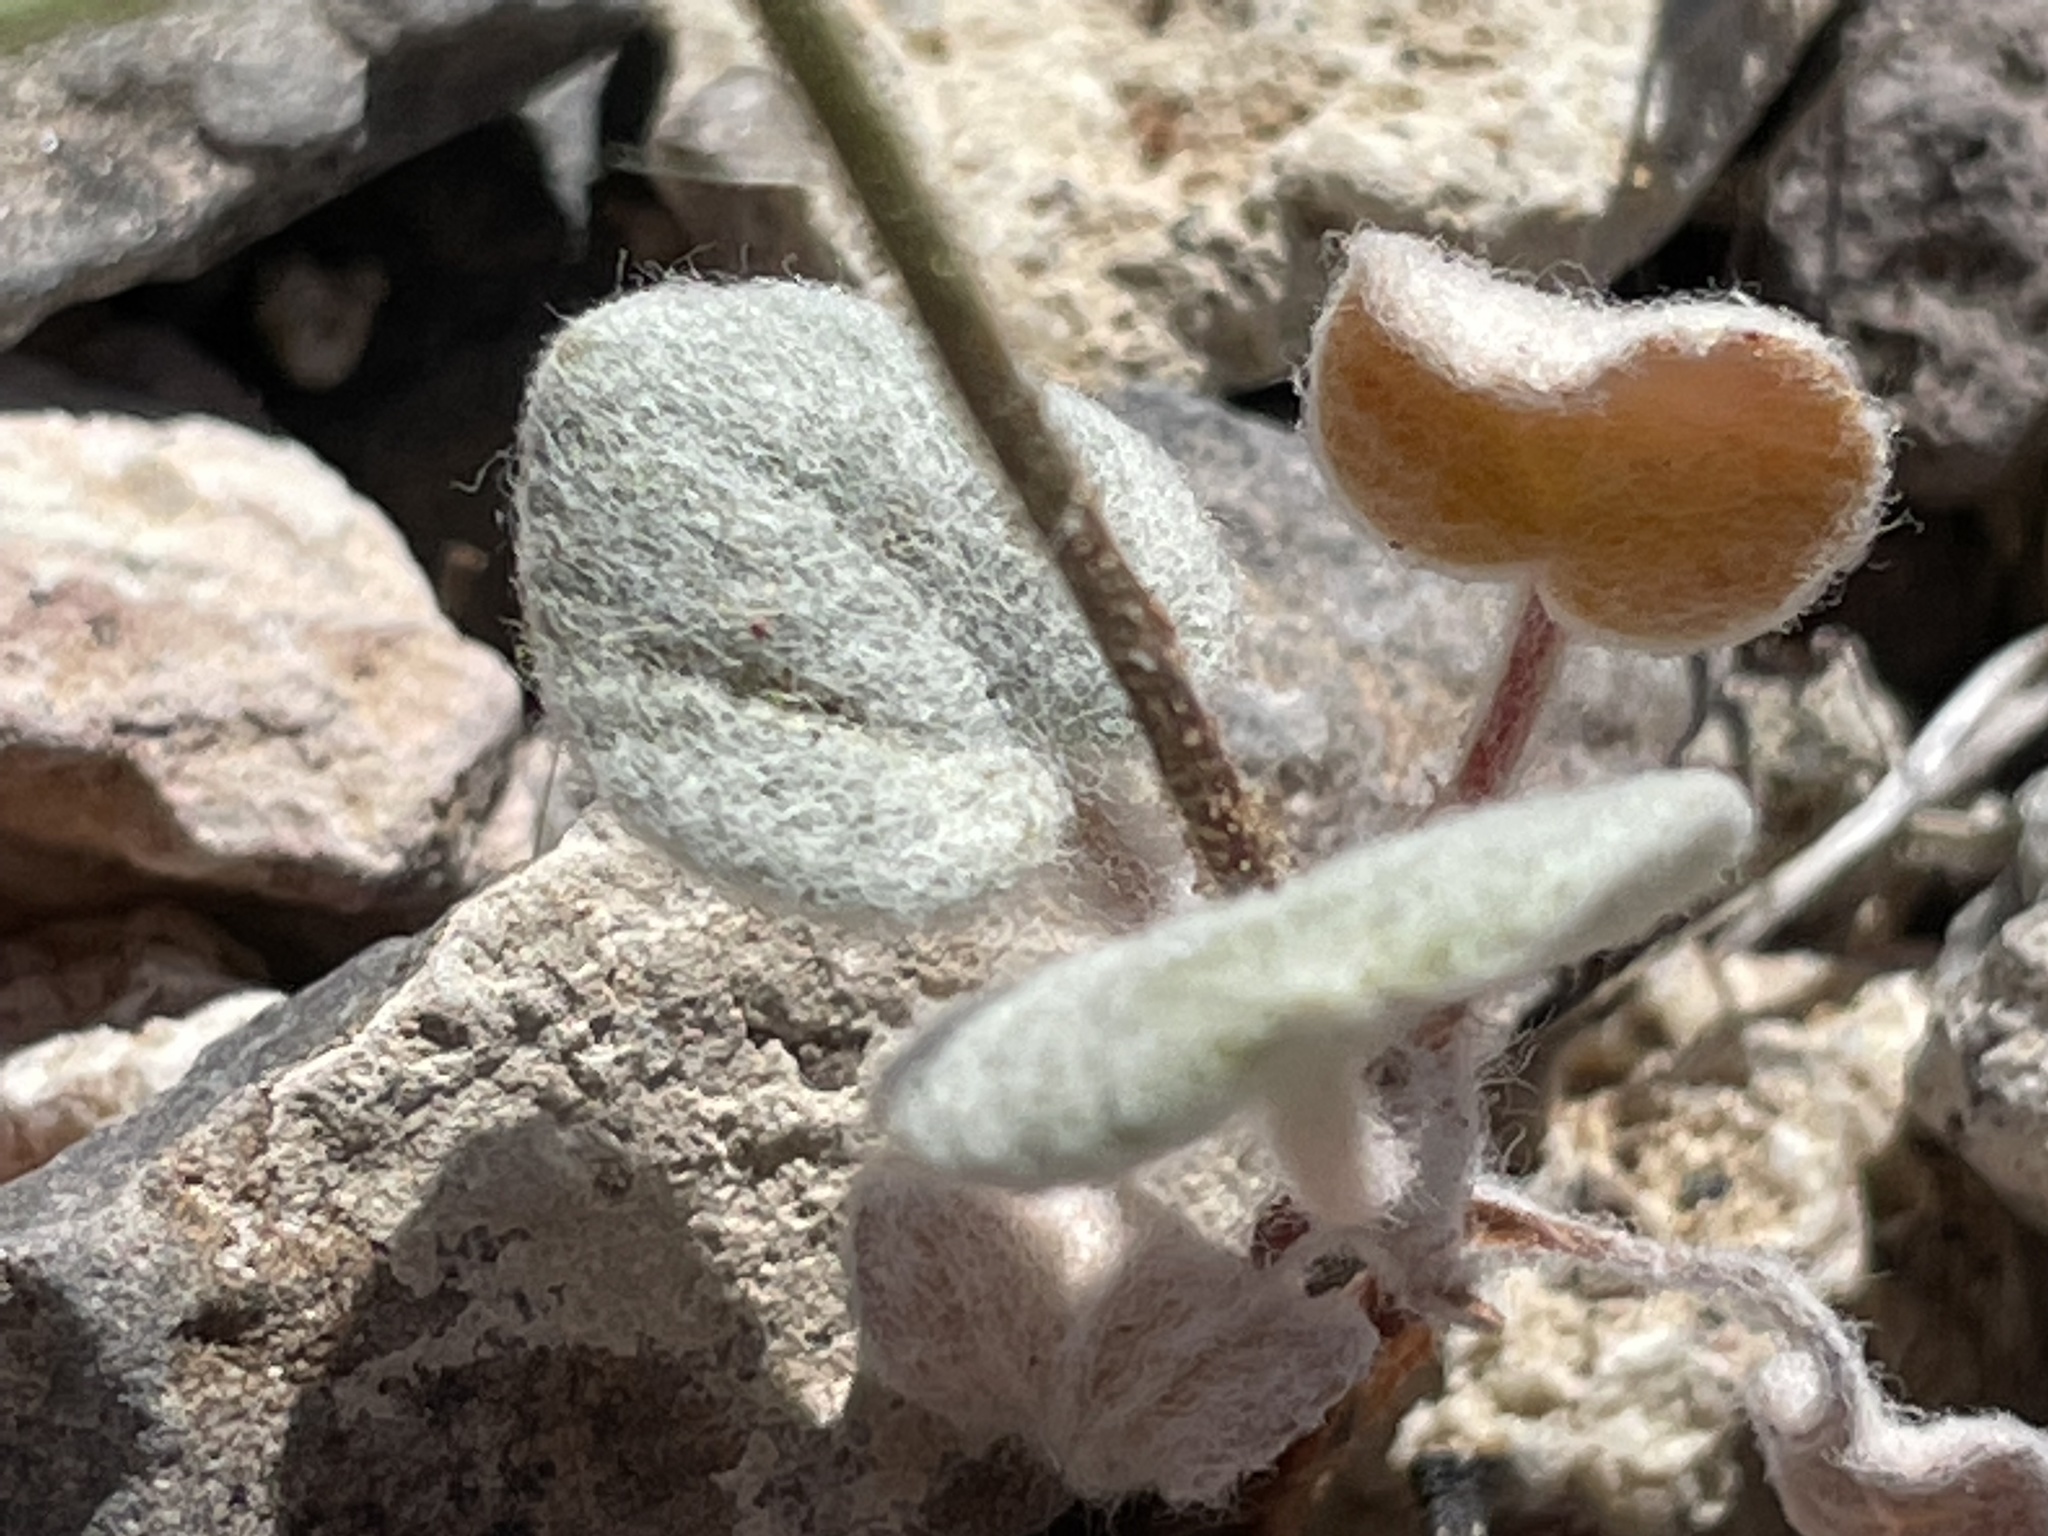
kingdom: Plantae
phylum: Tracheophyta
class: Magnoliopsida
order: Caryophyllales
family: Polygonaceae
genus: Eriogonum
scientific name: Eriogonum brachypodum
